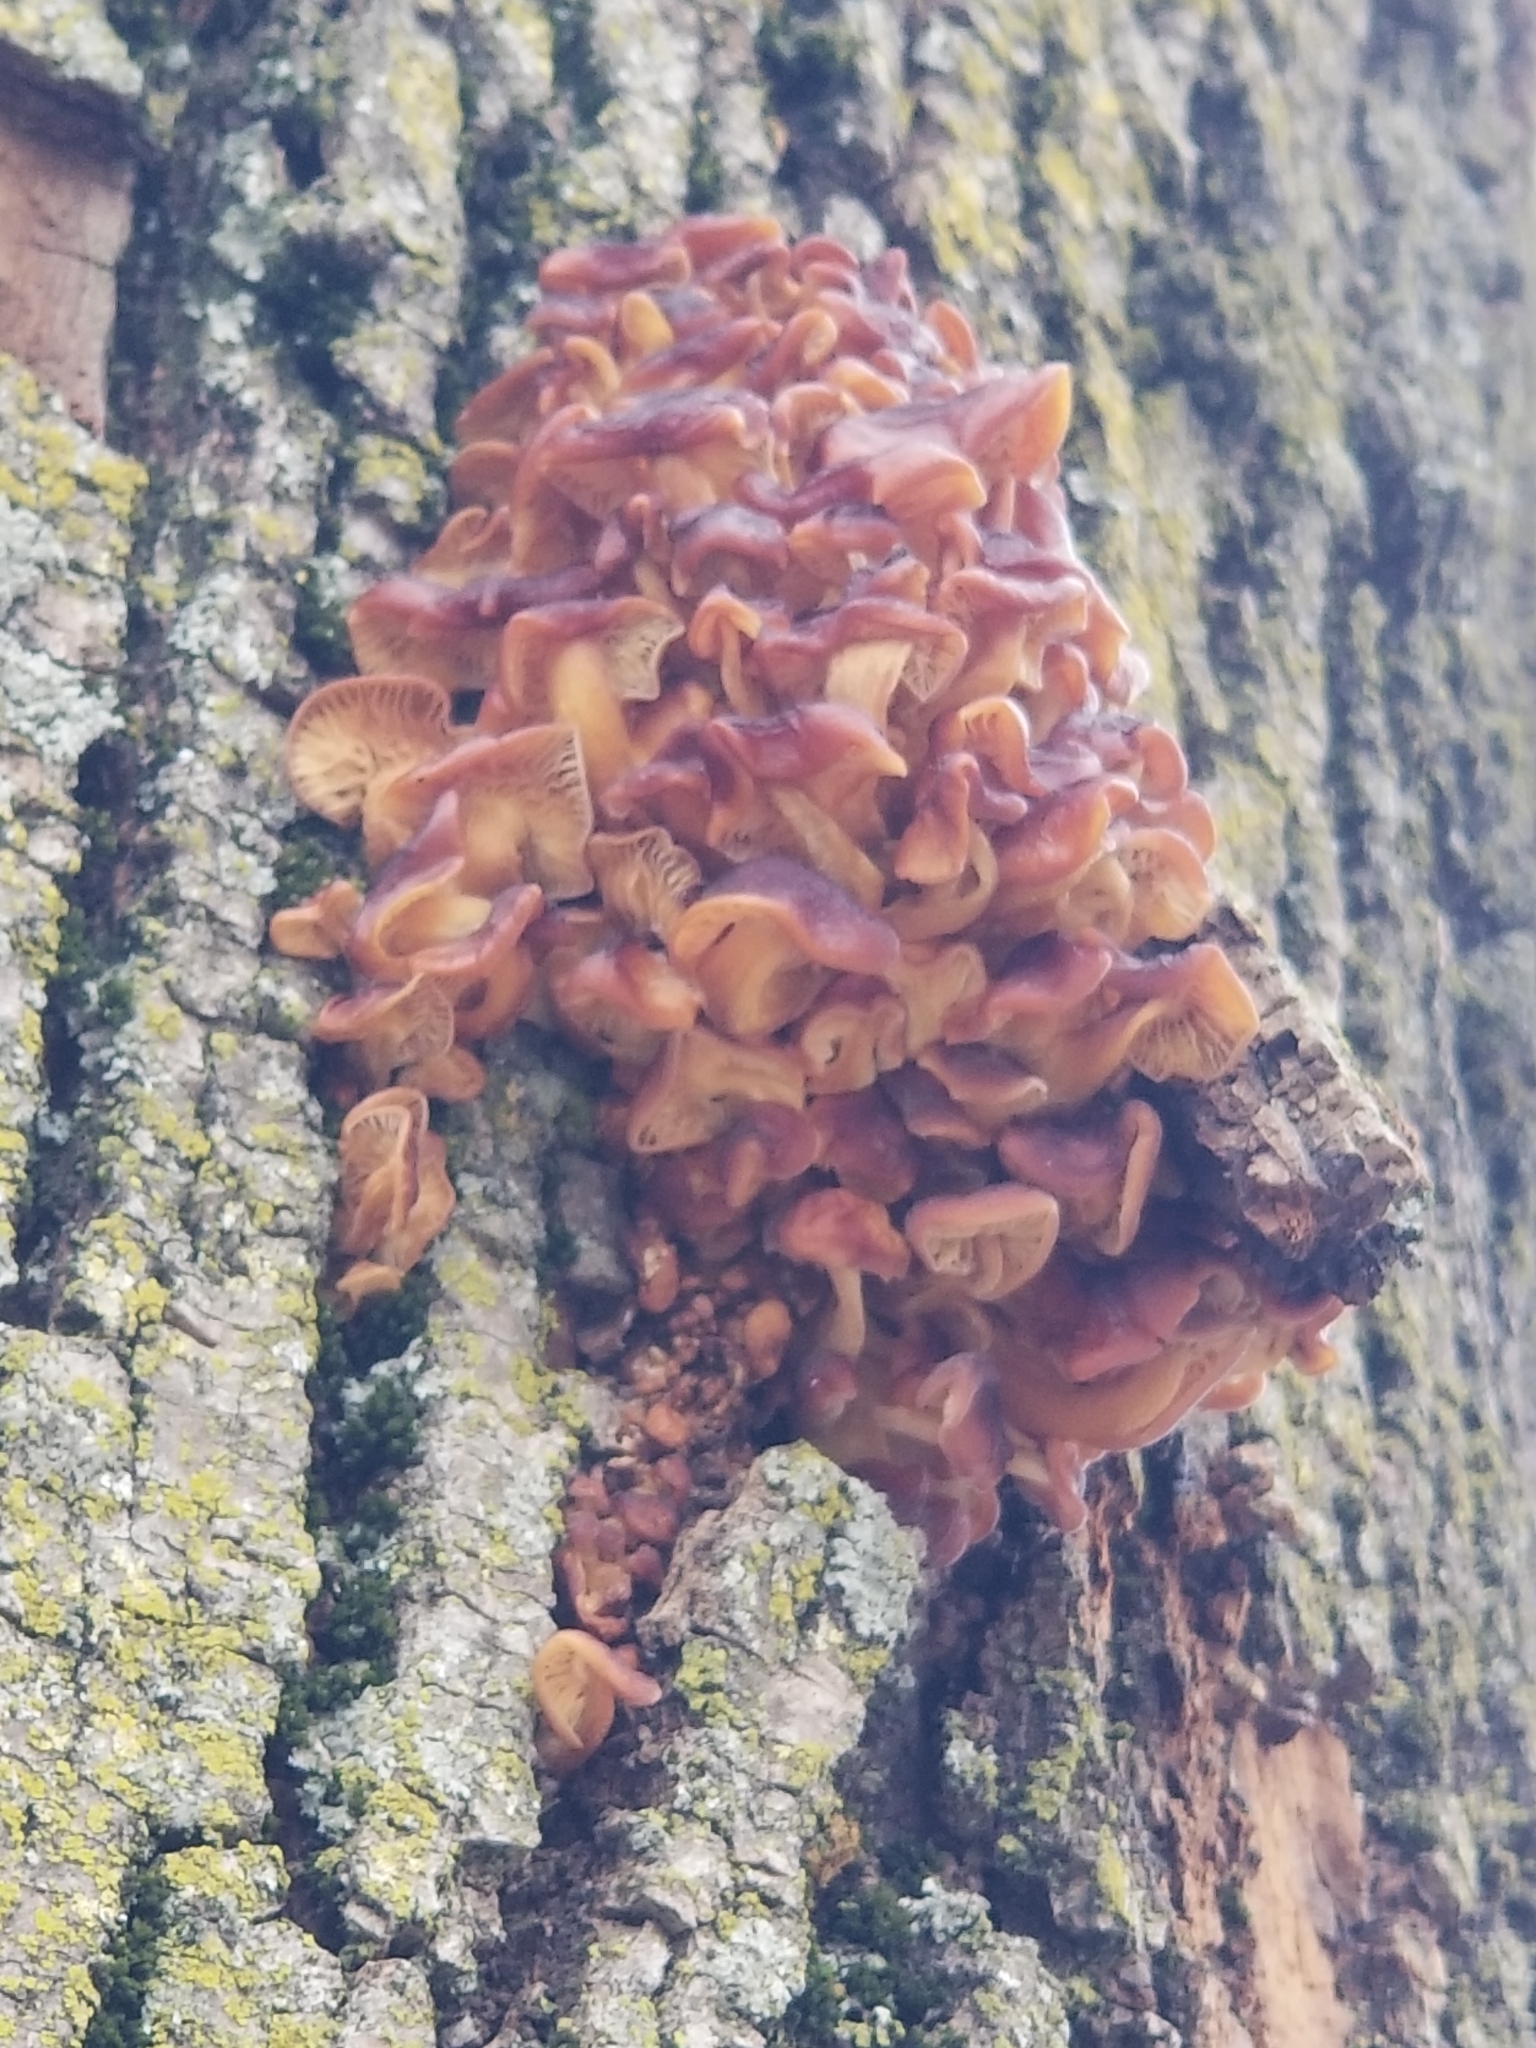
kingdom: Fungi
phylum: Basidiomycota
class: Agaricomycetes
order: Agaricales
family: Physalacriaceae
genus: Flammulina
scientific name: Flammulina velutipes
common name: Velvet shank
